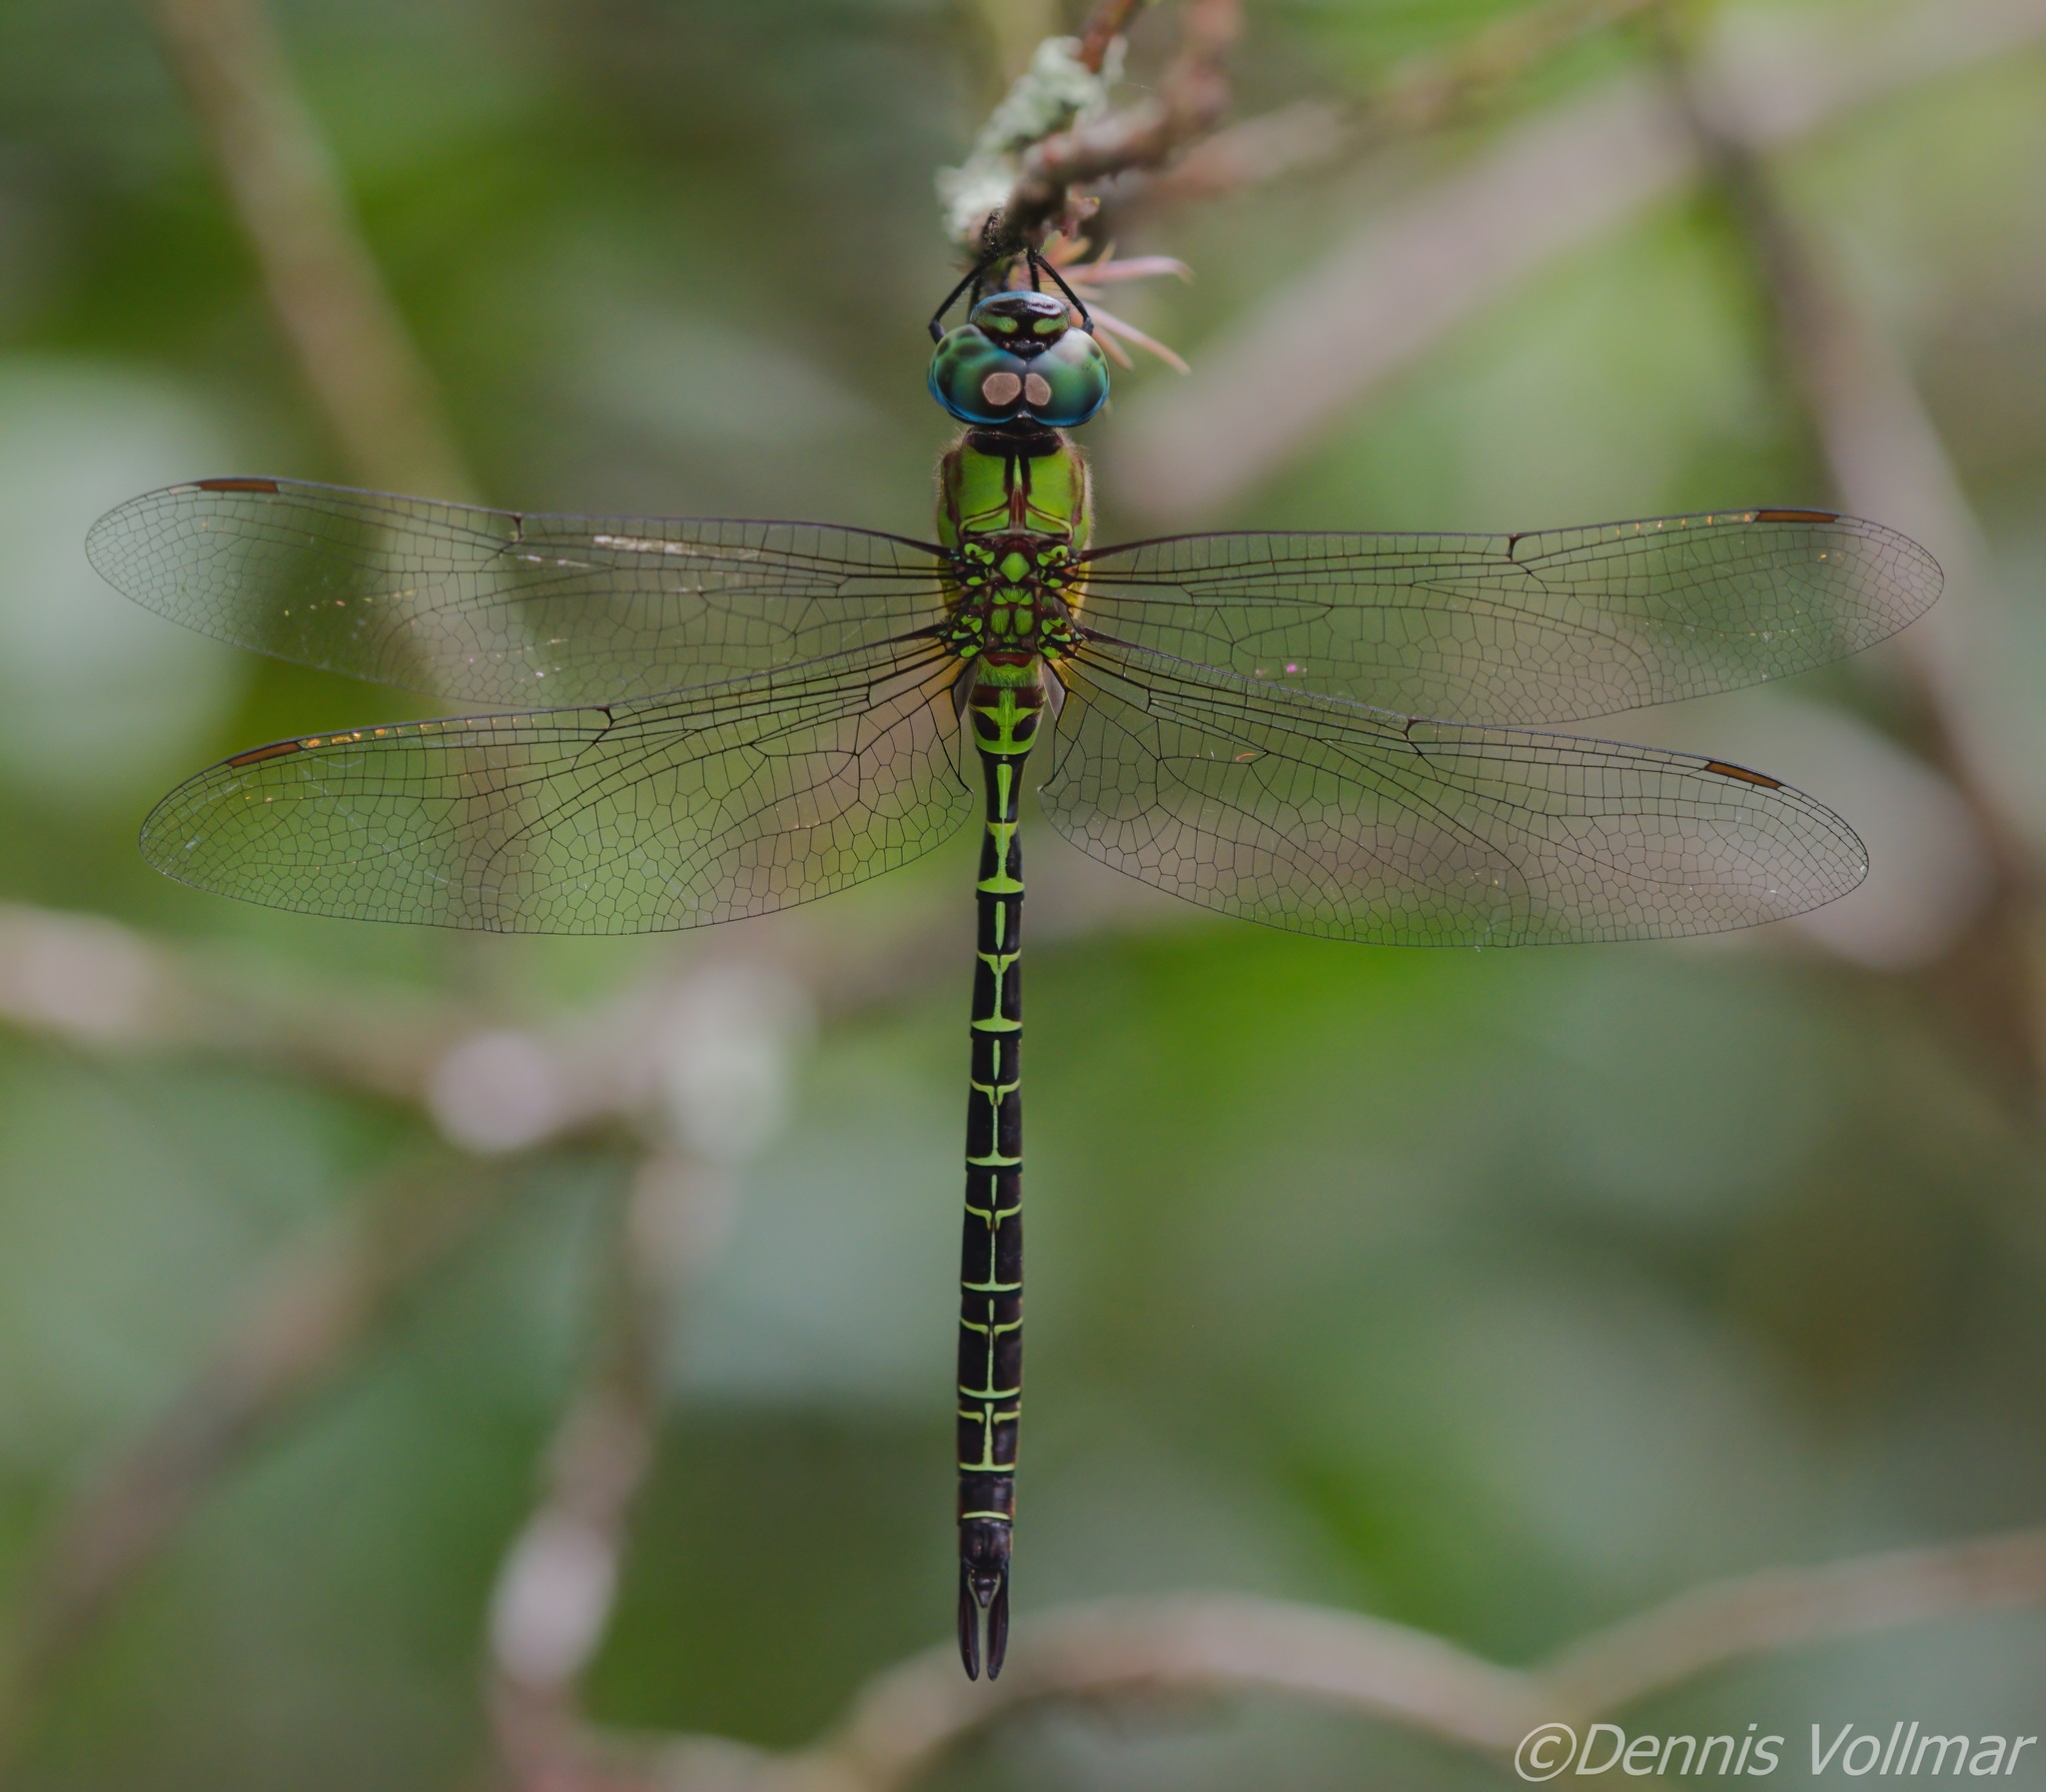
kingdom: Animalia
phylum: Arthropoda
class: Insecta
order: Odonata
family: Aeshnidae
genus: Coryphaeschna
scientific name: Coryphaeschna adnexa
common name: Blue-faced darner
